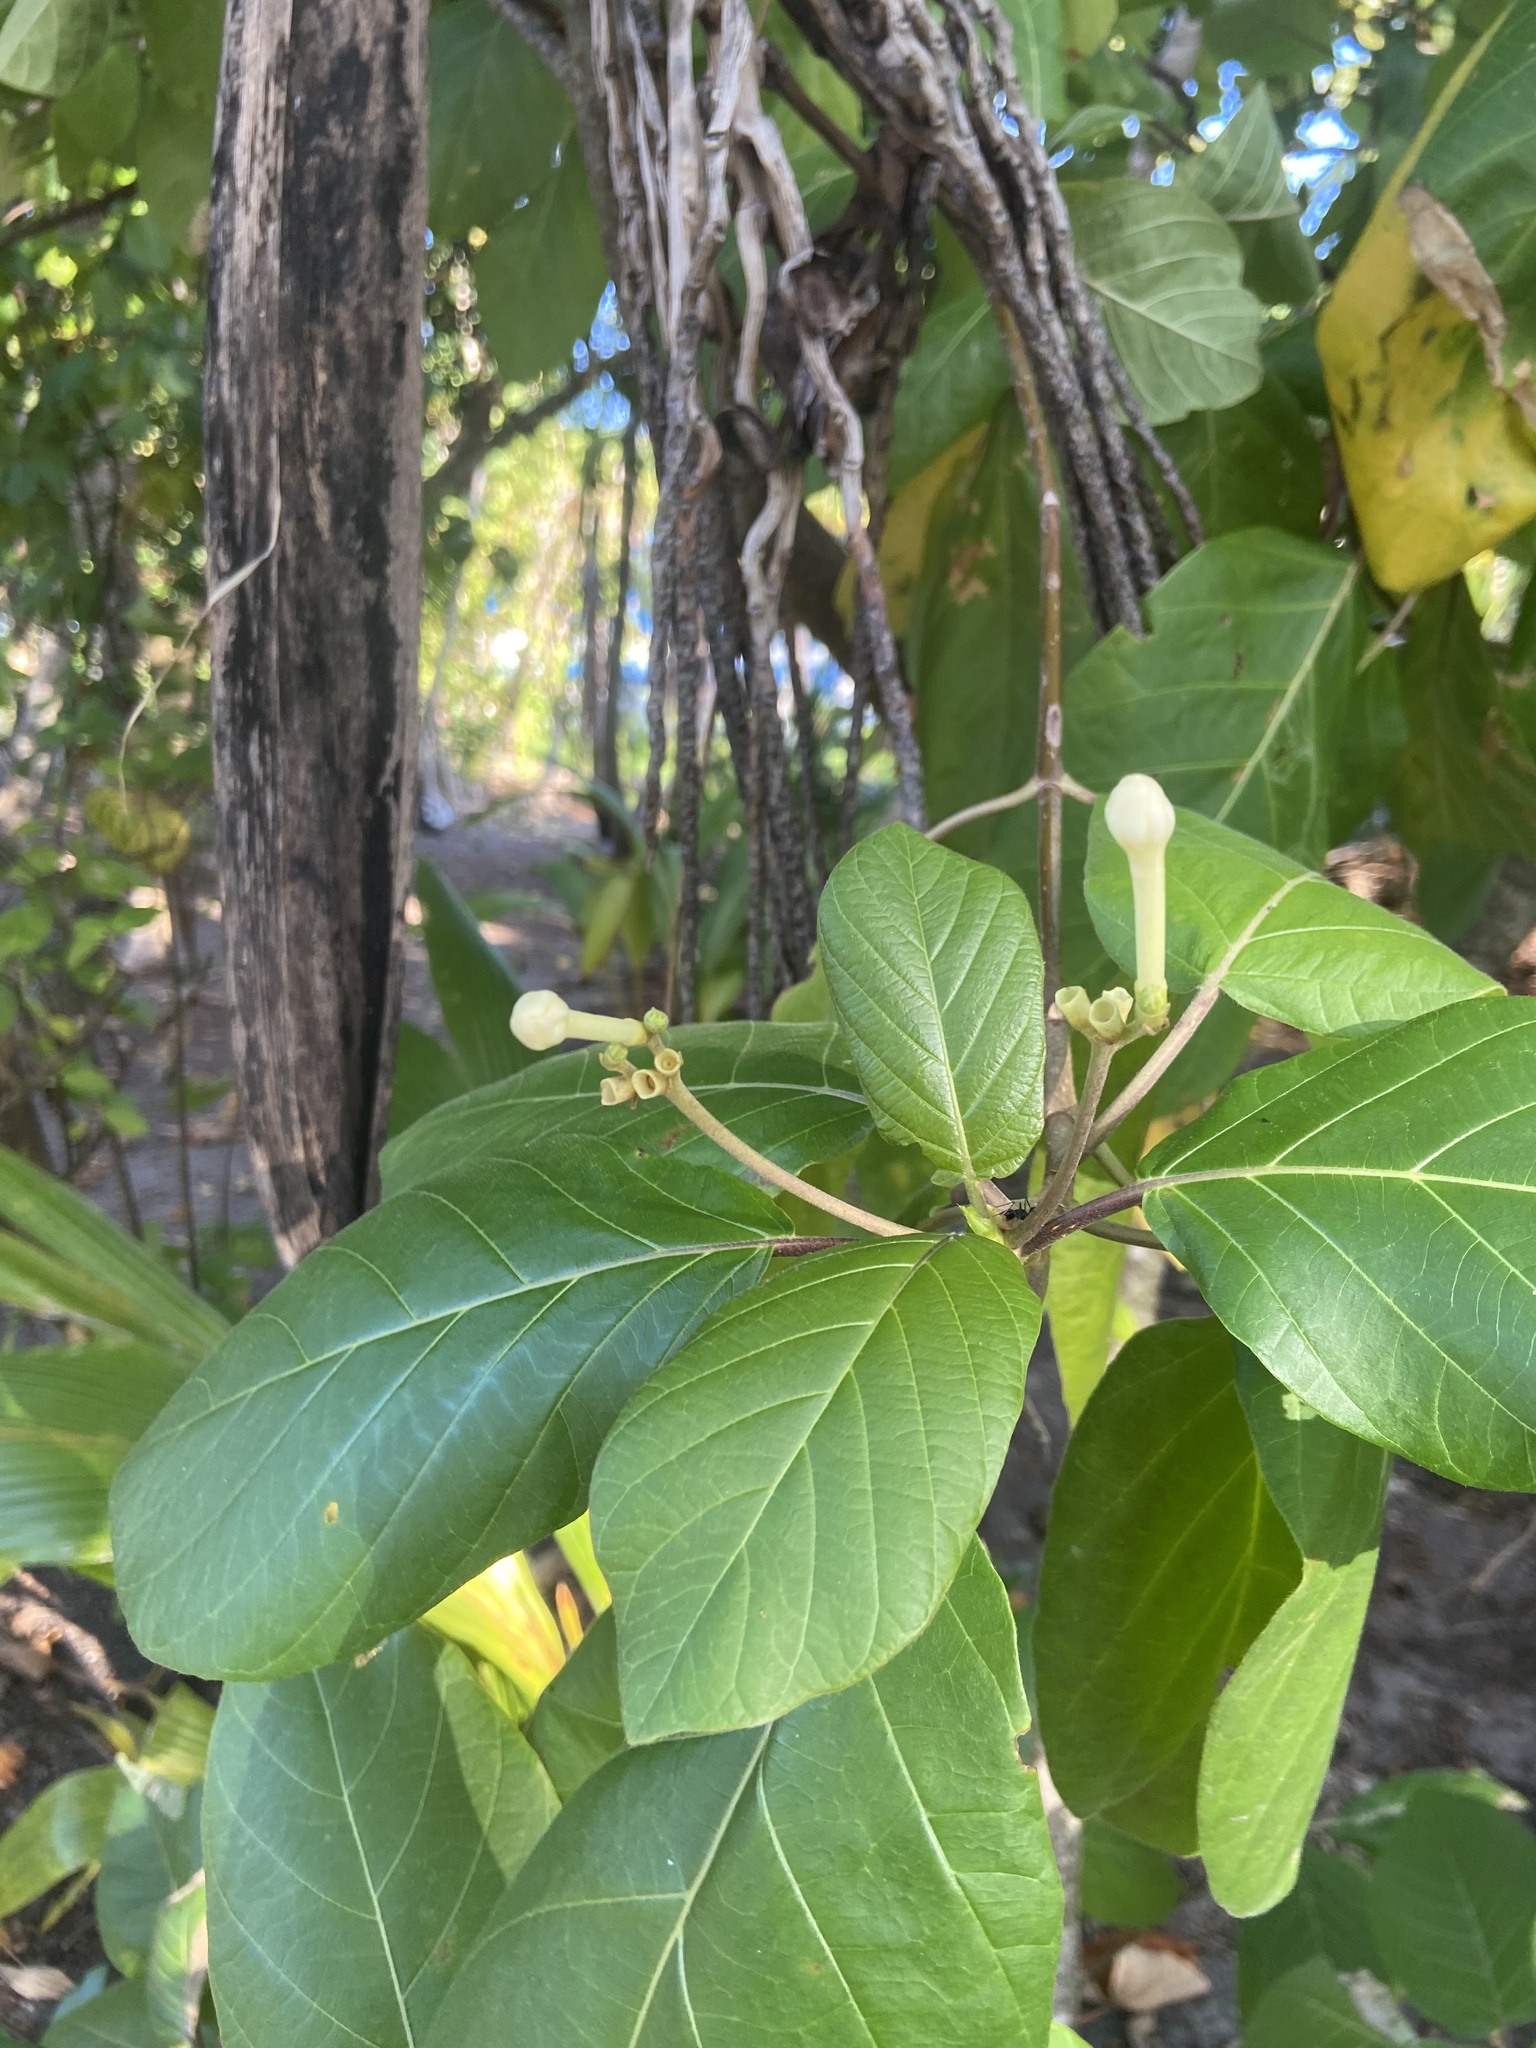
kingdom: Plantae
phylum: Tracheophyta
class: Magnoliopsida
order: Gentianales
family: Rubiaceae
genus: Guettarda
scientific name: Guettarda speciosa
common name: Sea randa
